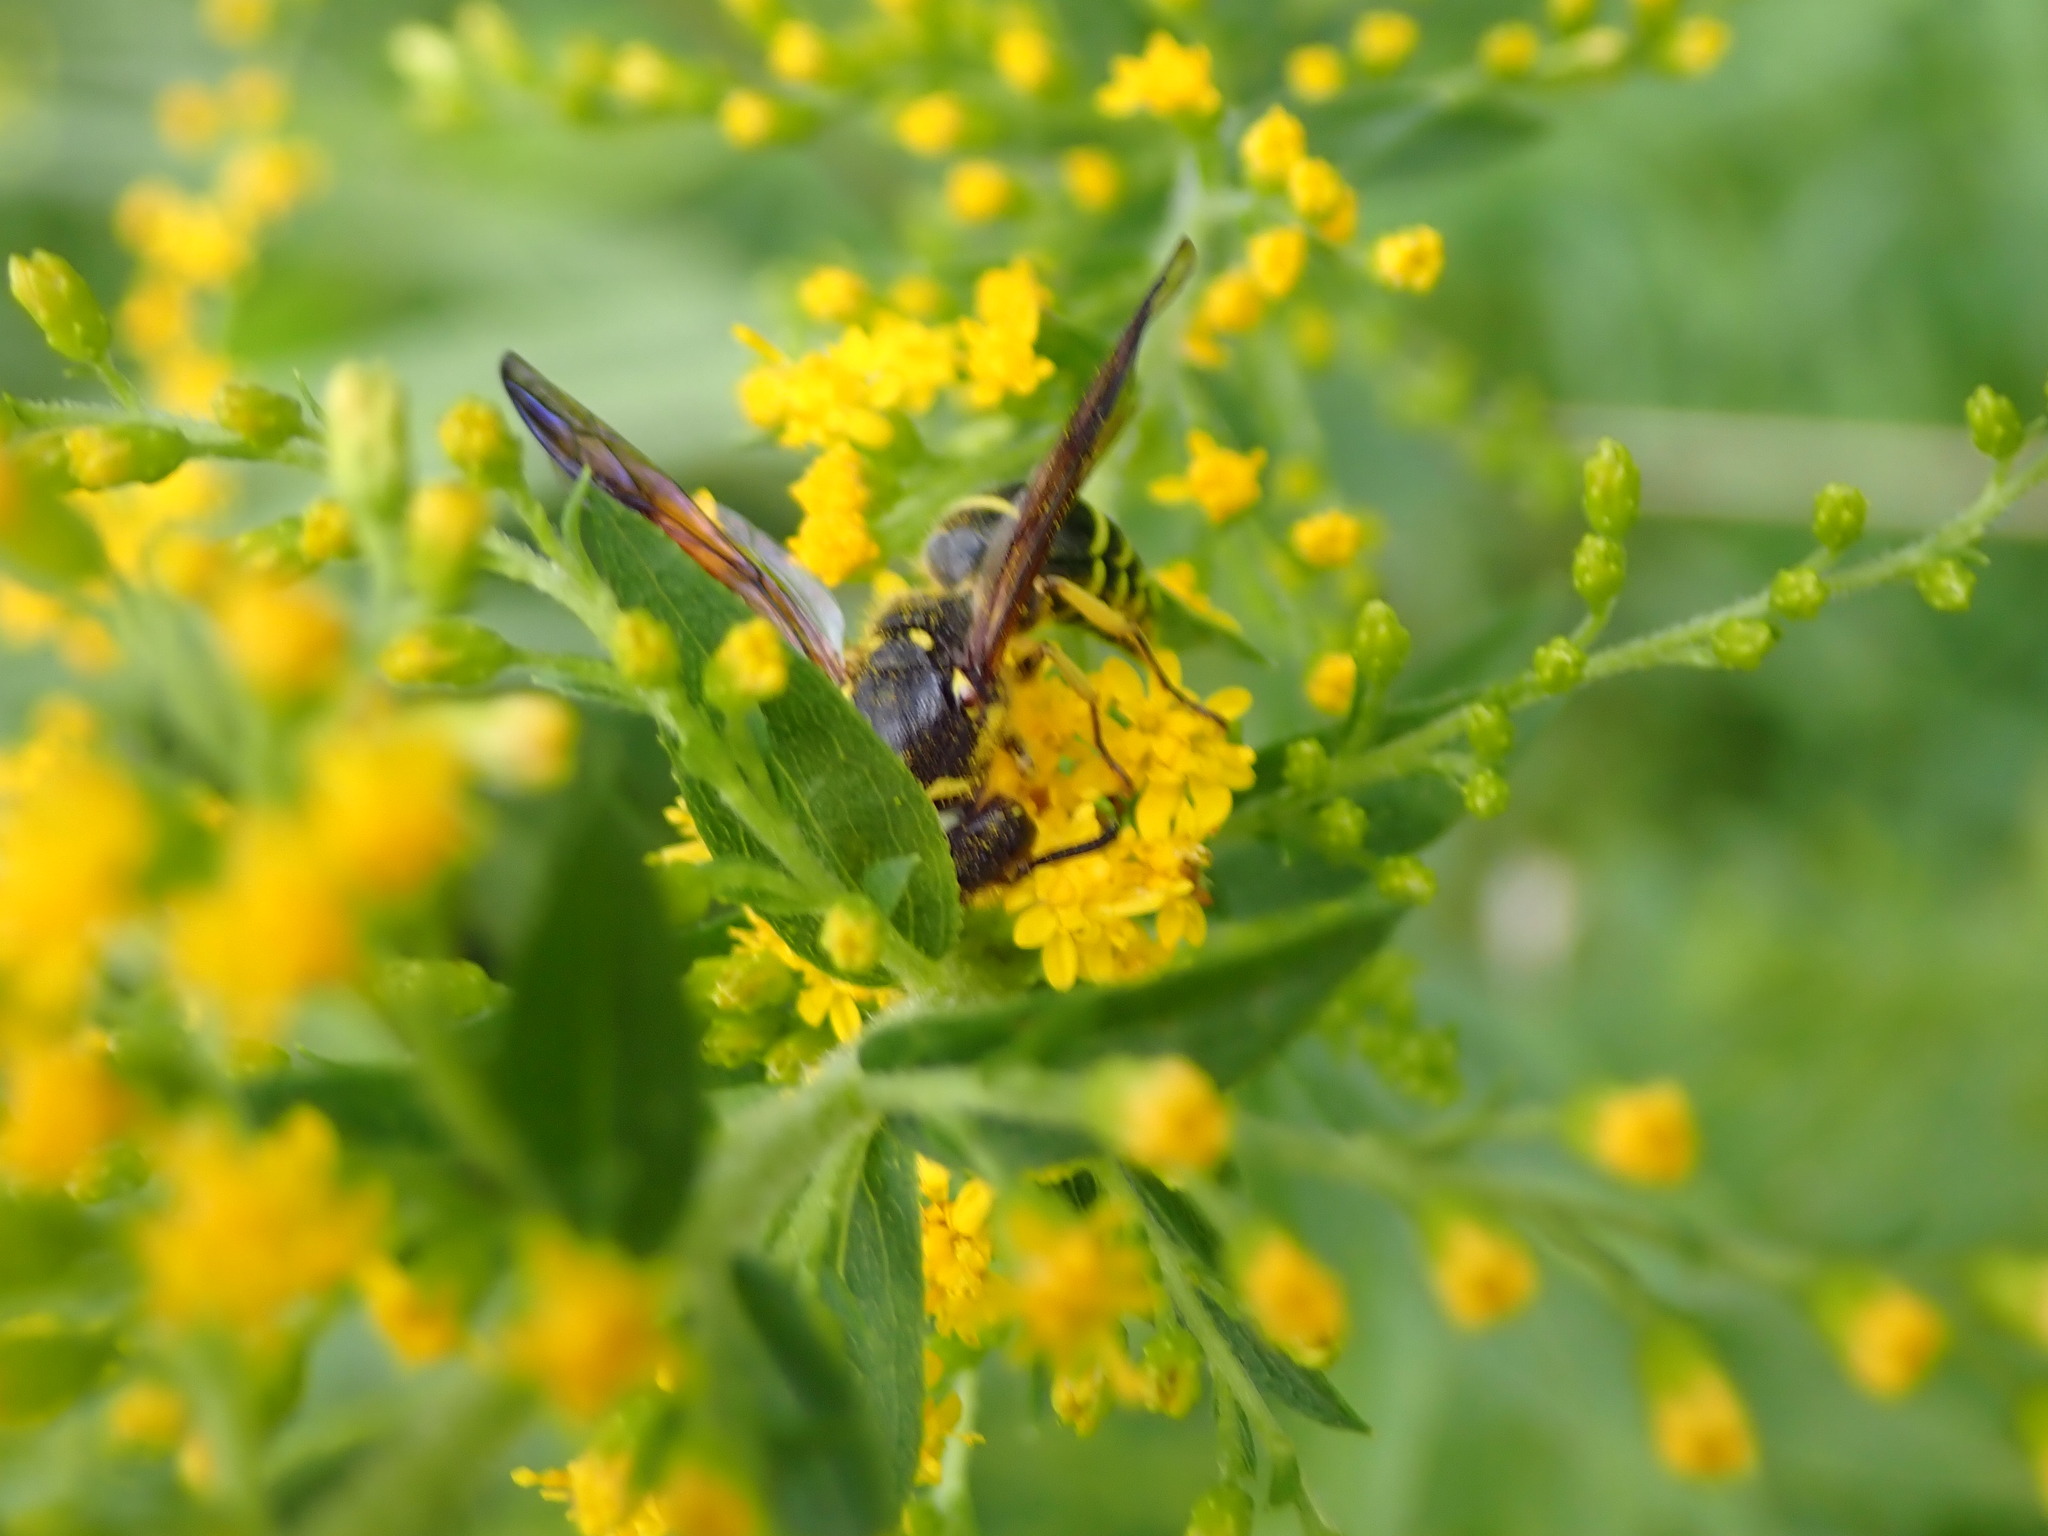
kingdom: Animalia
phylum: Arthropoda
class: Insecta
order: Hymenoptera
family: Vespidae
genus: Ancistrocerus
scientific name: Ancistrocerus
